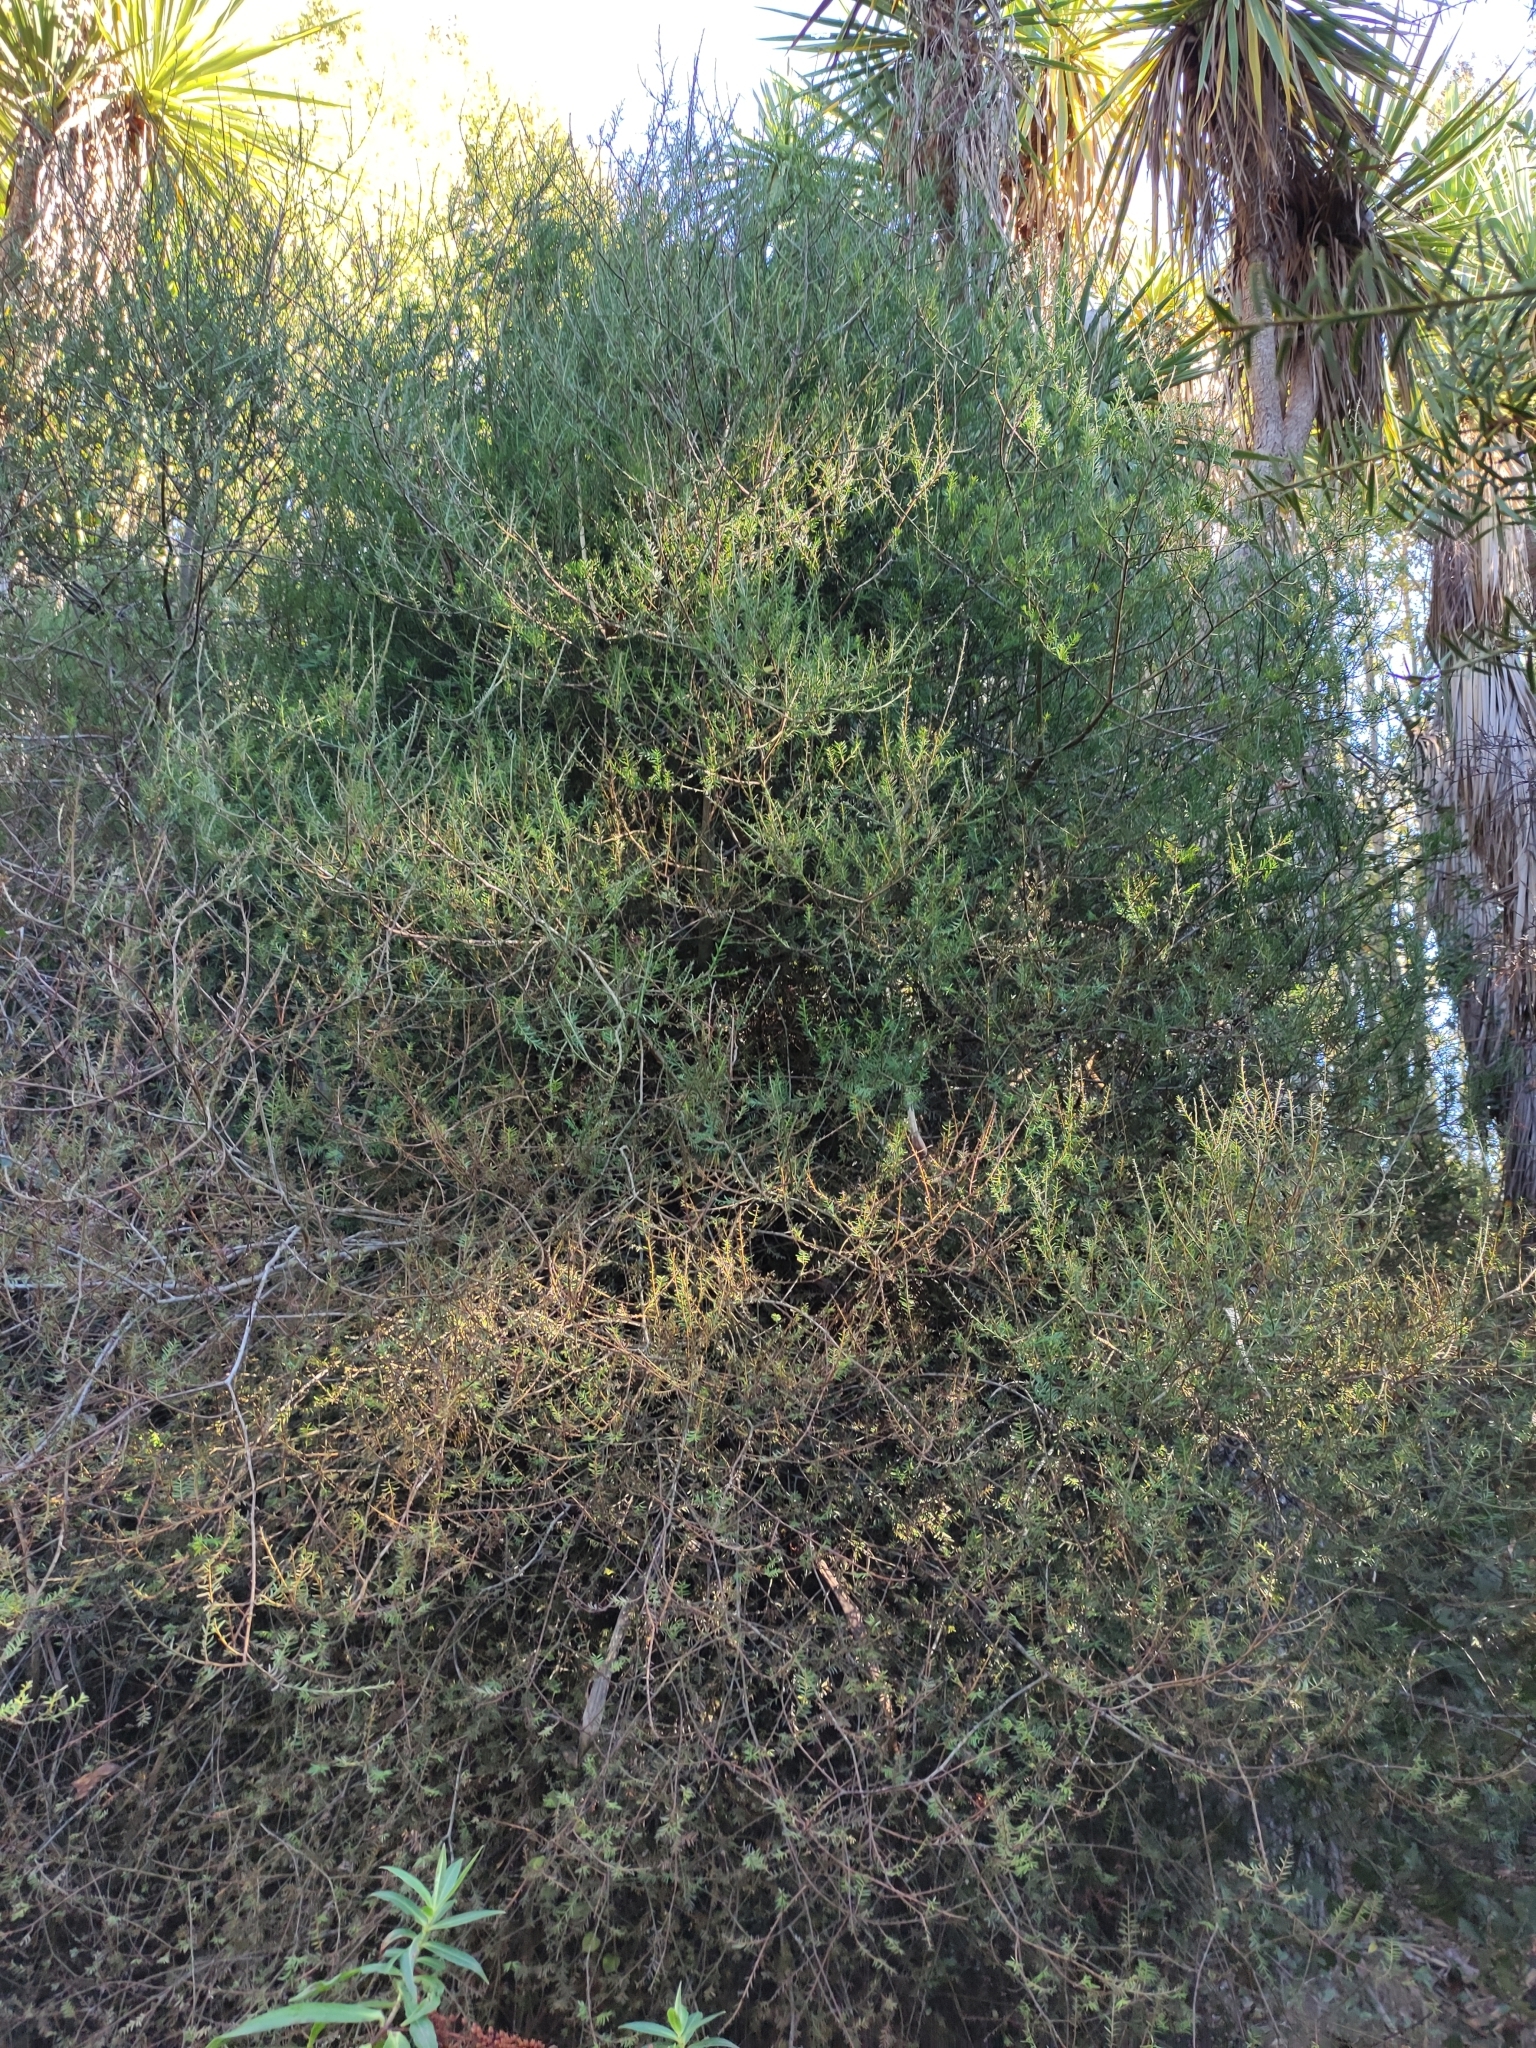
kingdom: Plantae
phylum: Tracheophyta
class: Pinopsida
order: Pinales
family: Podocarpaceae
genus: Prumnopitys
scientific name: Prumnopitys taxifolia
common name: Matai
